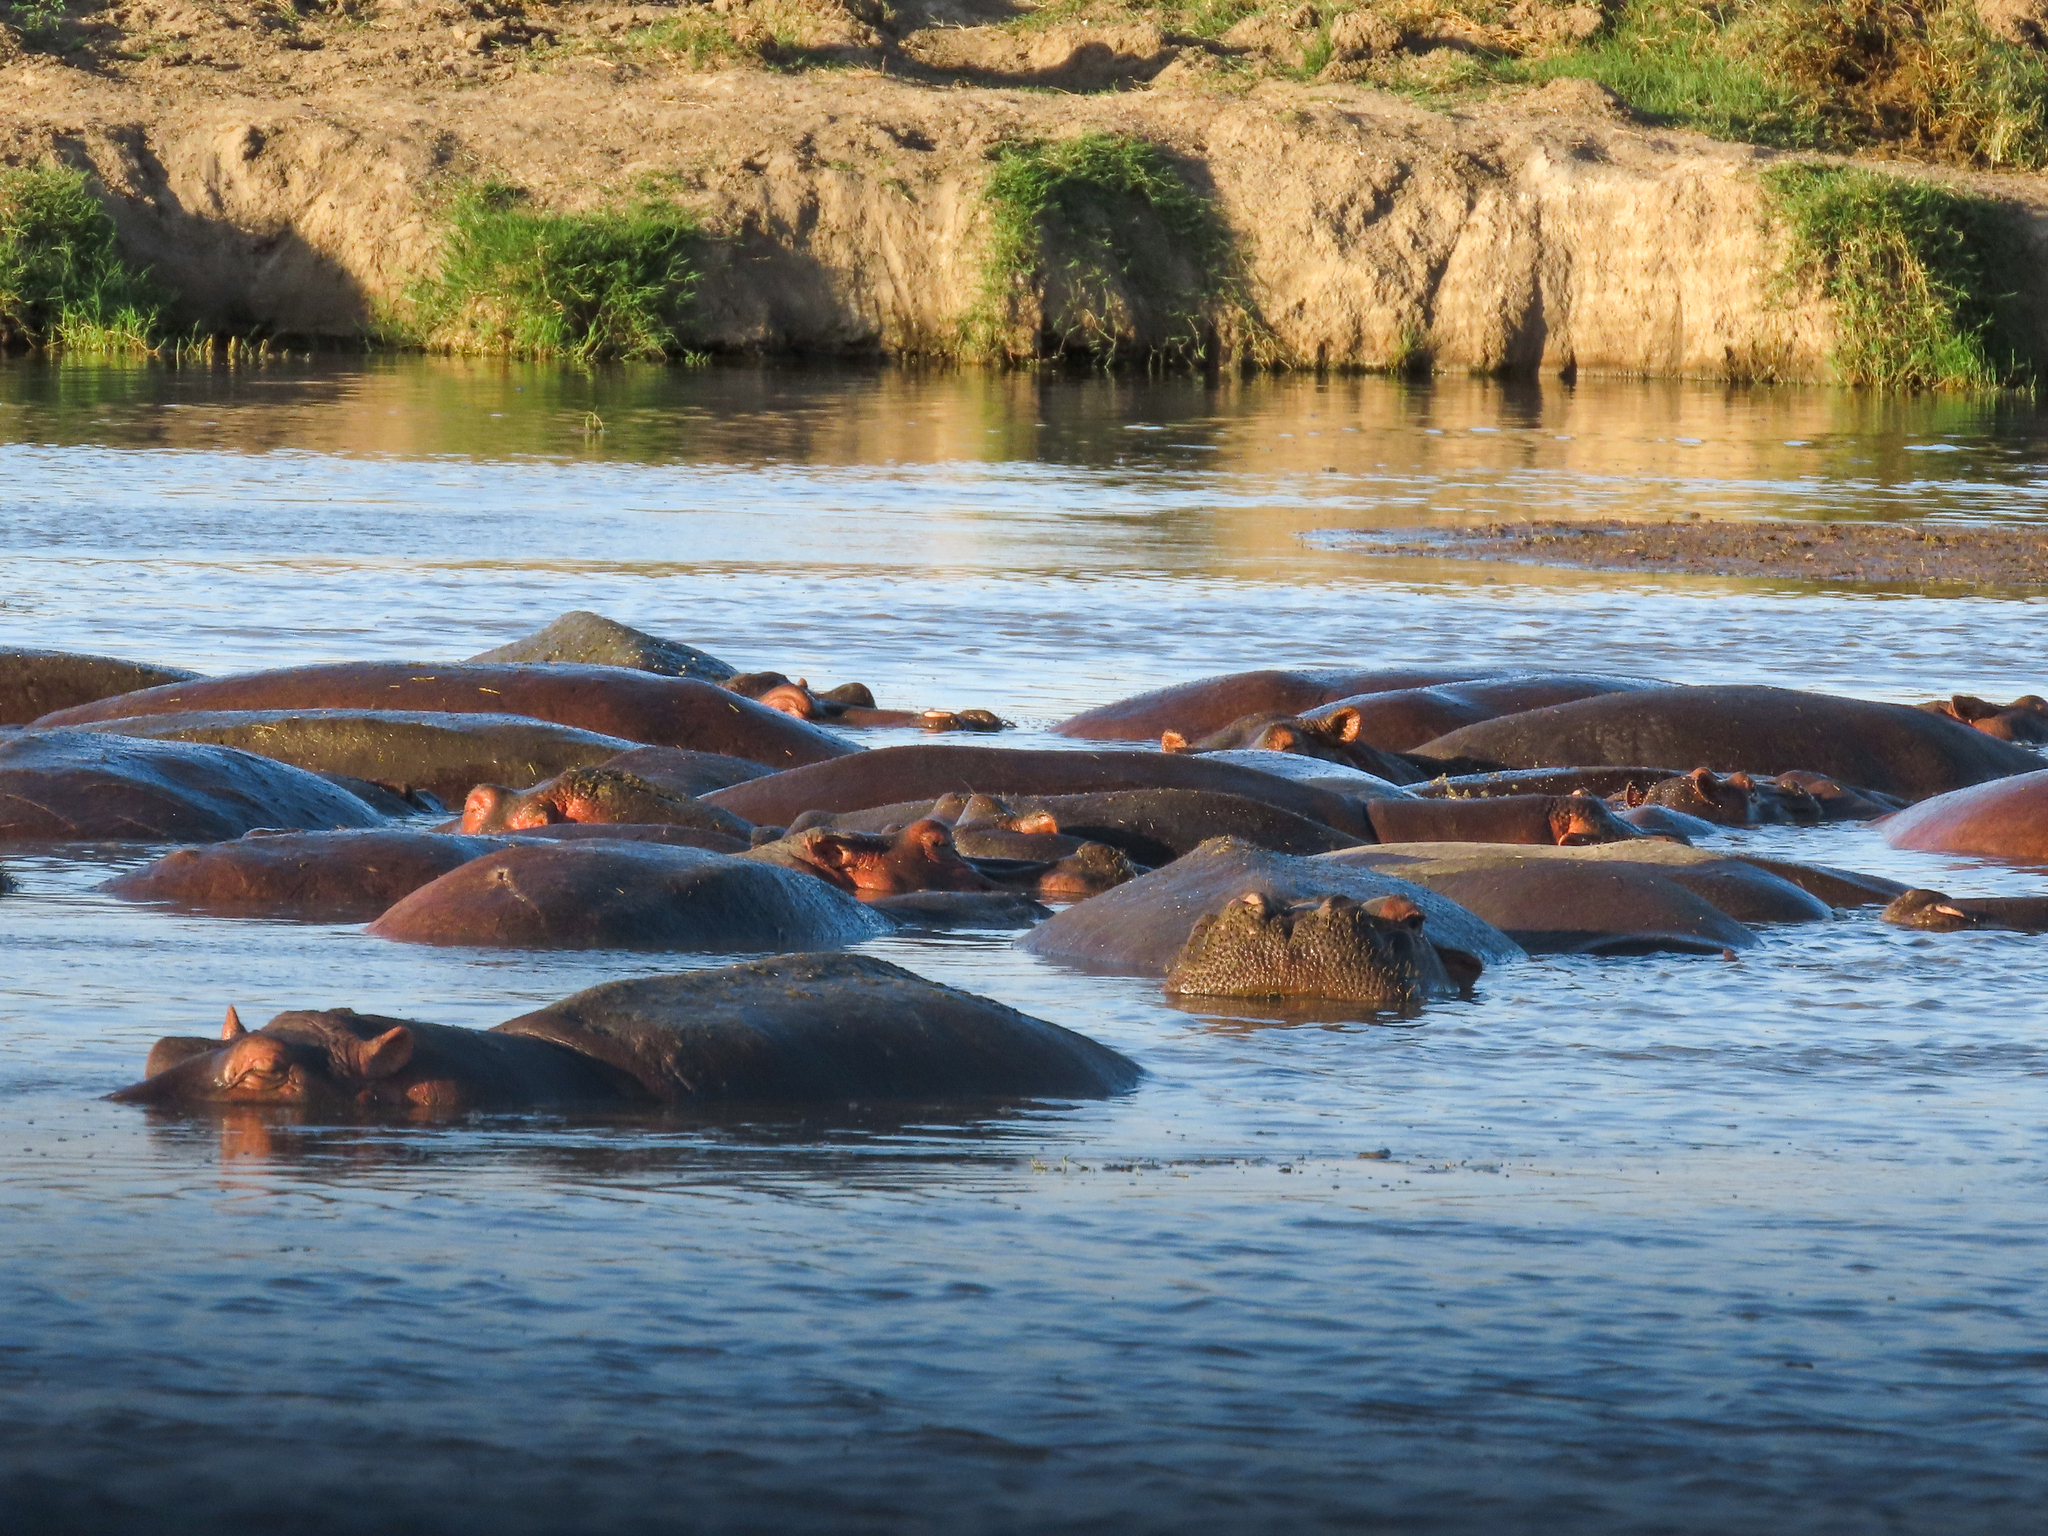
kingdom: Animalia
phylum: Chordata
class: Mammalia
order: Artiodactyla
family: Hippopotamidae
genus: Hippopotamus
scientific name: Hippopotamus amphibius
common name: Common hippopotamus
